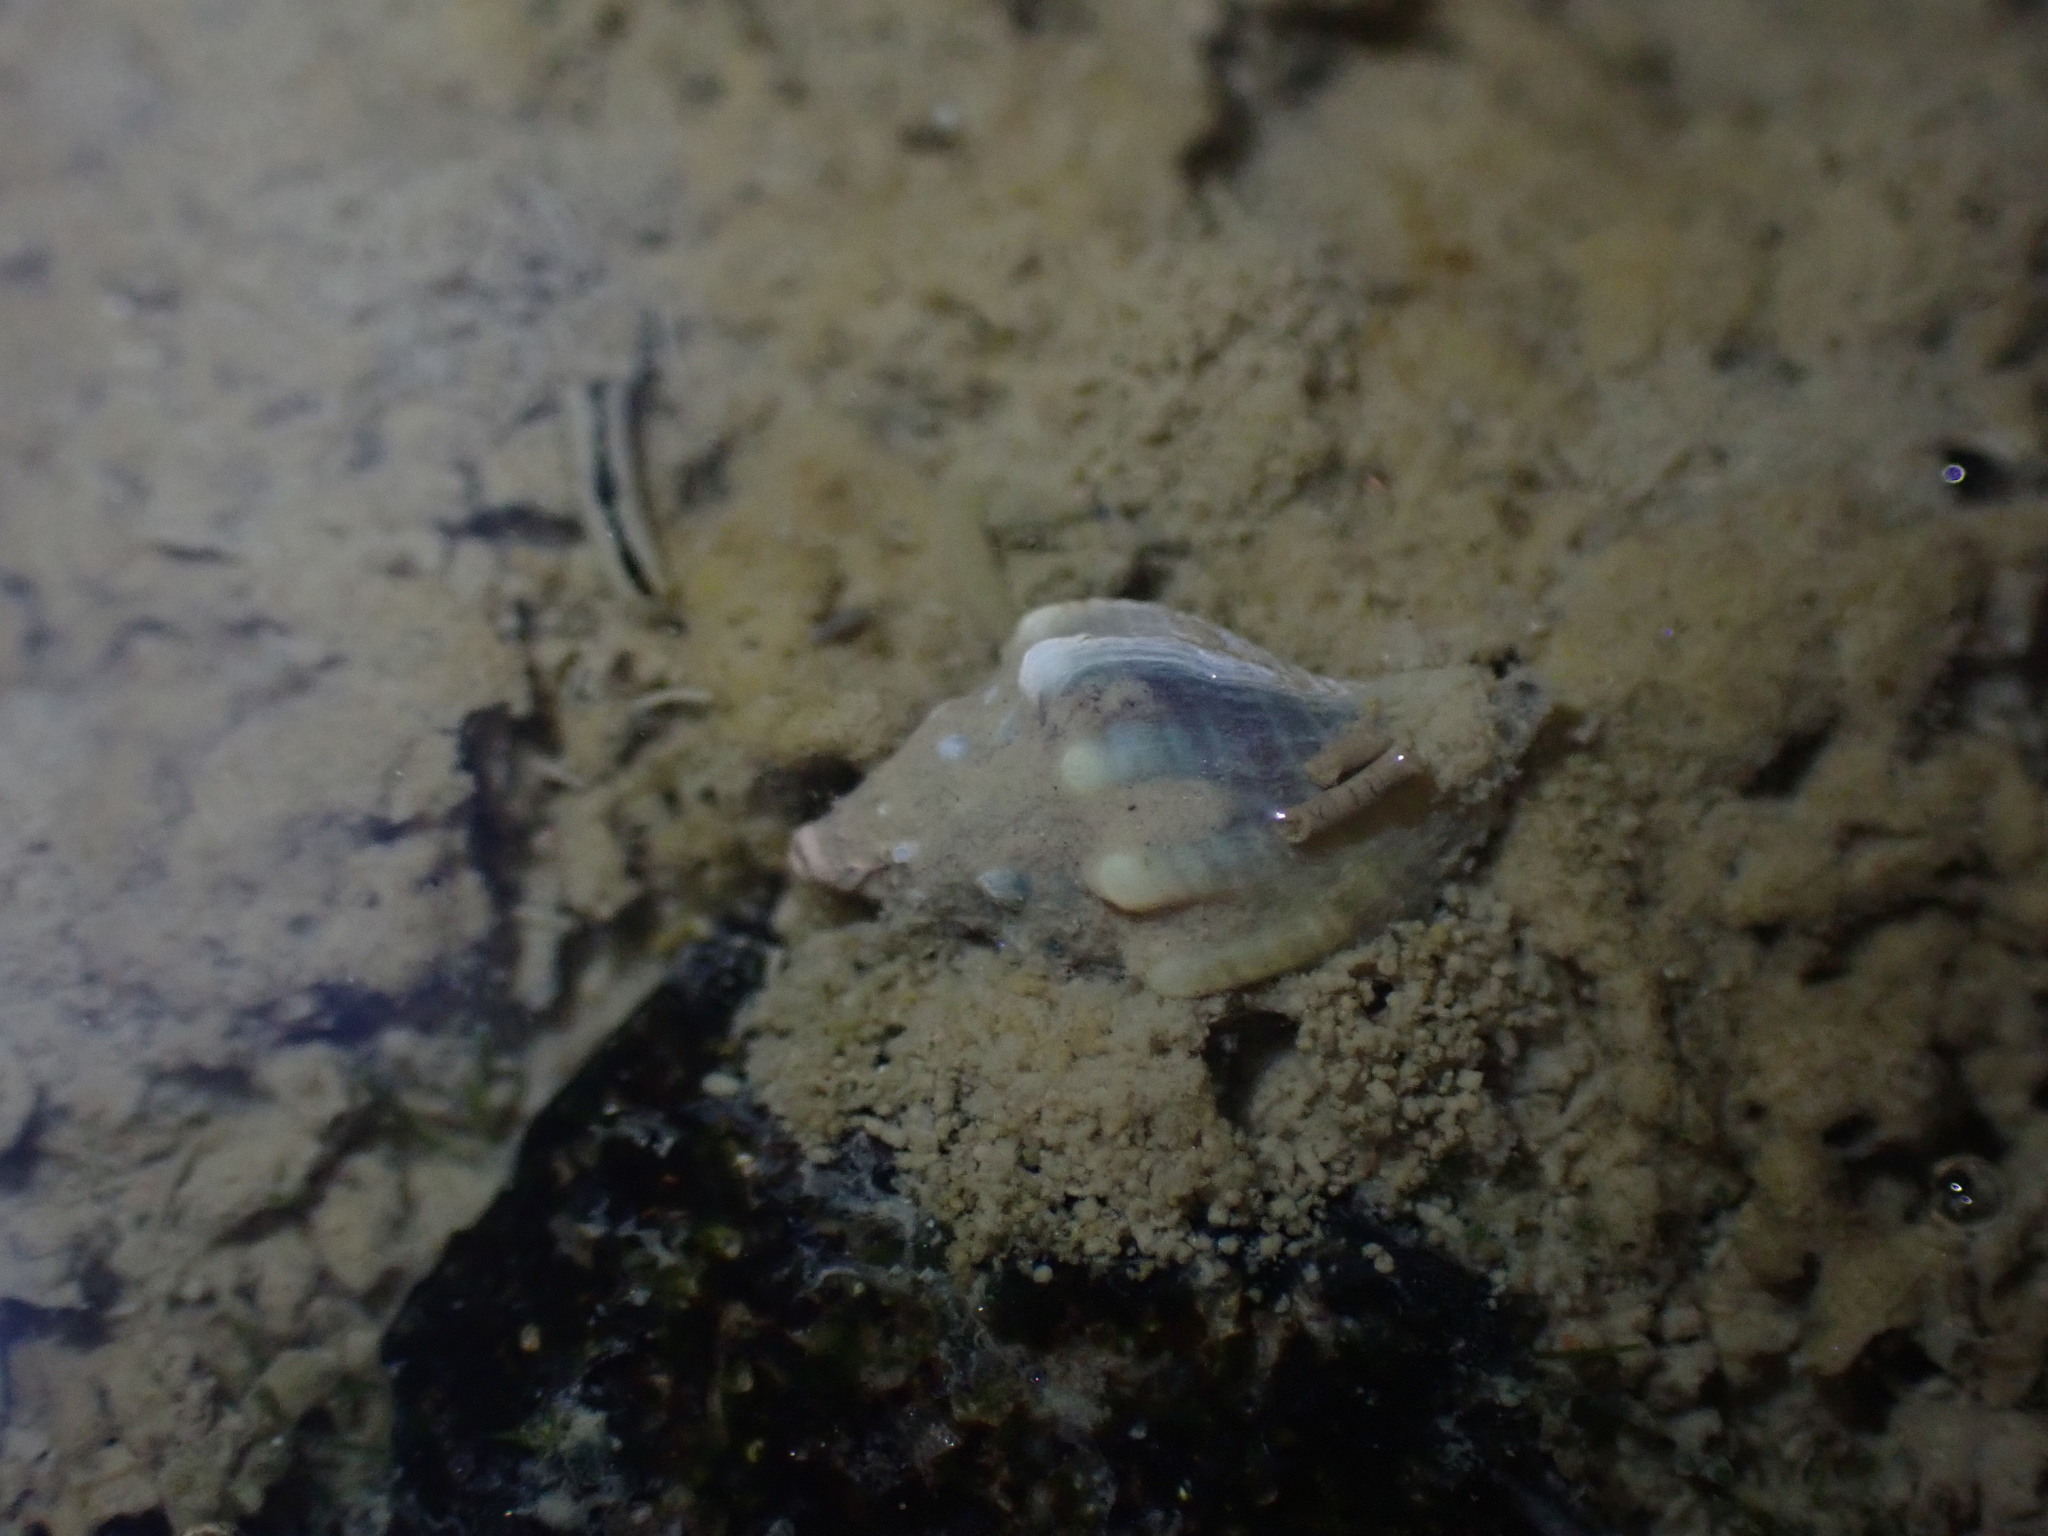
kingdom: Animalia
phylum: Mollusca
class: Gastropoda
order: Neogastropoda
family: Cominellidae
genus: Cominella
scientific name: Cominella glandiformis
